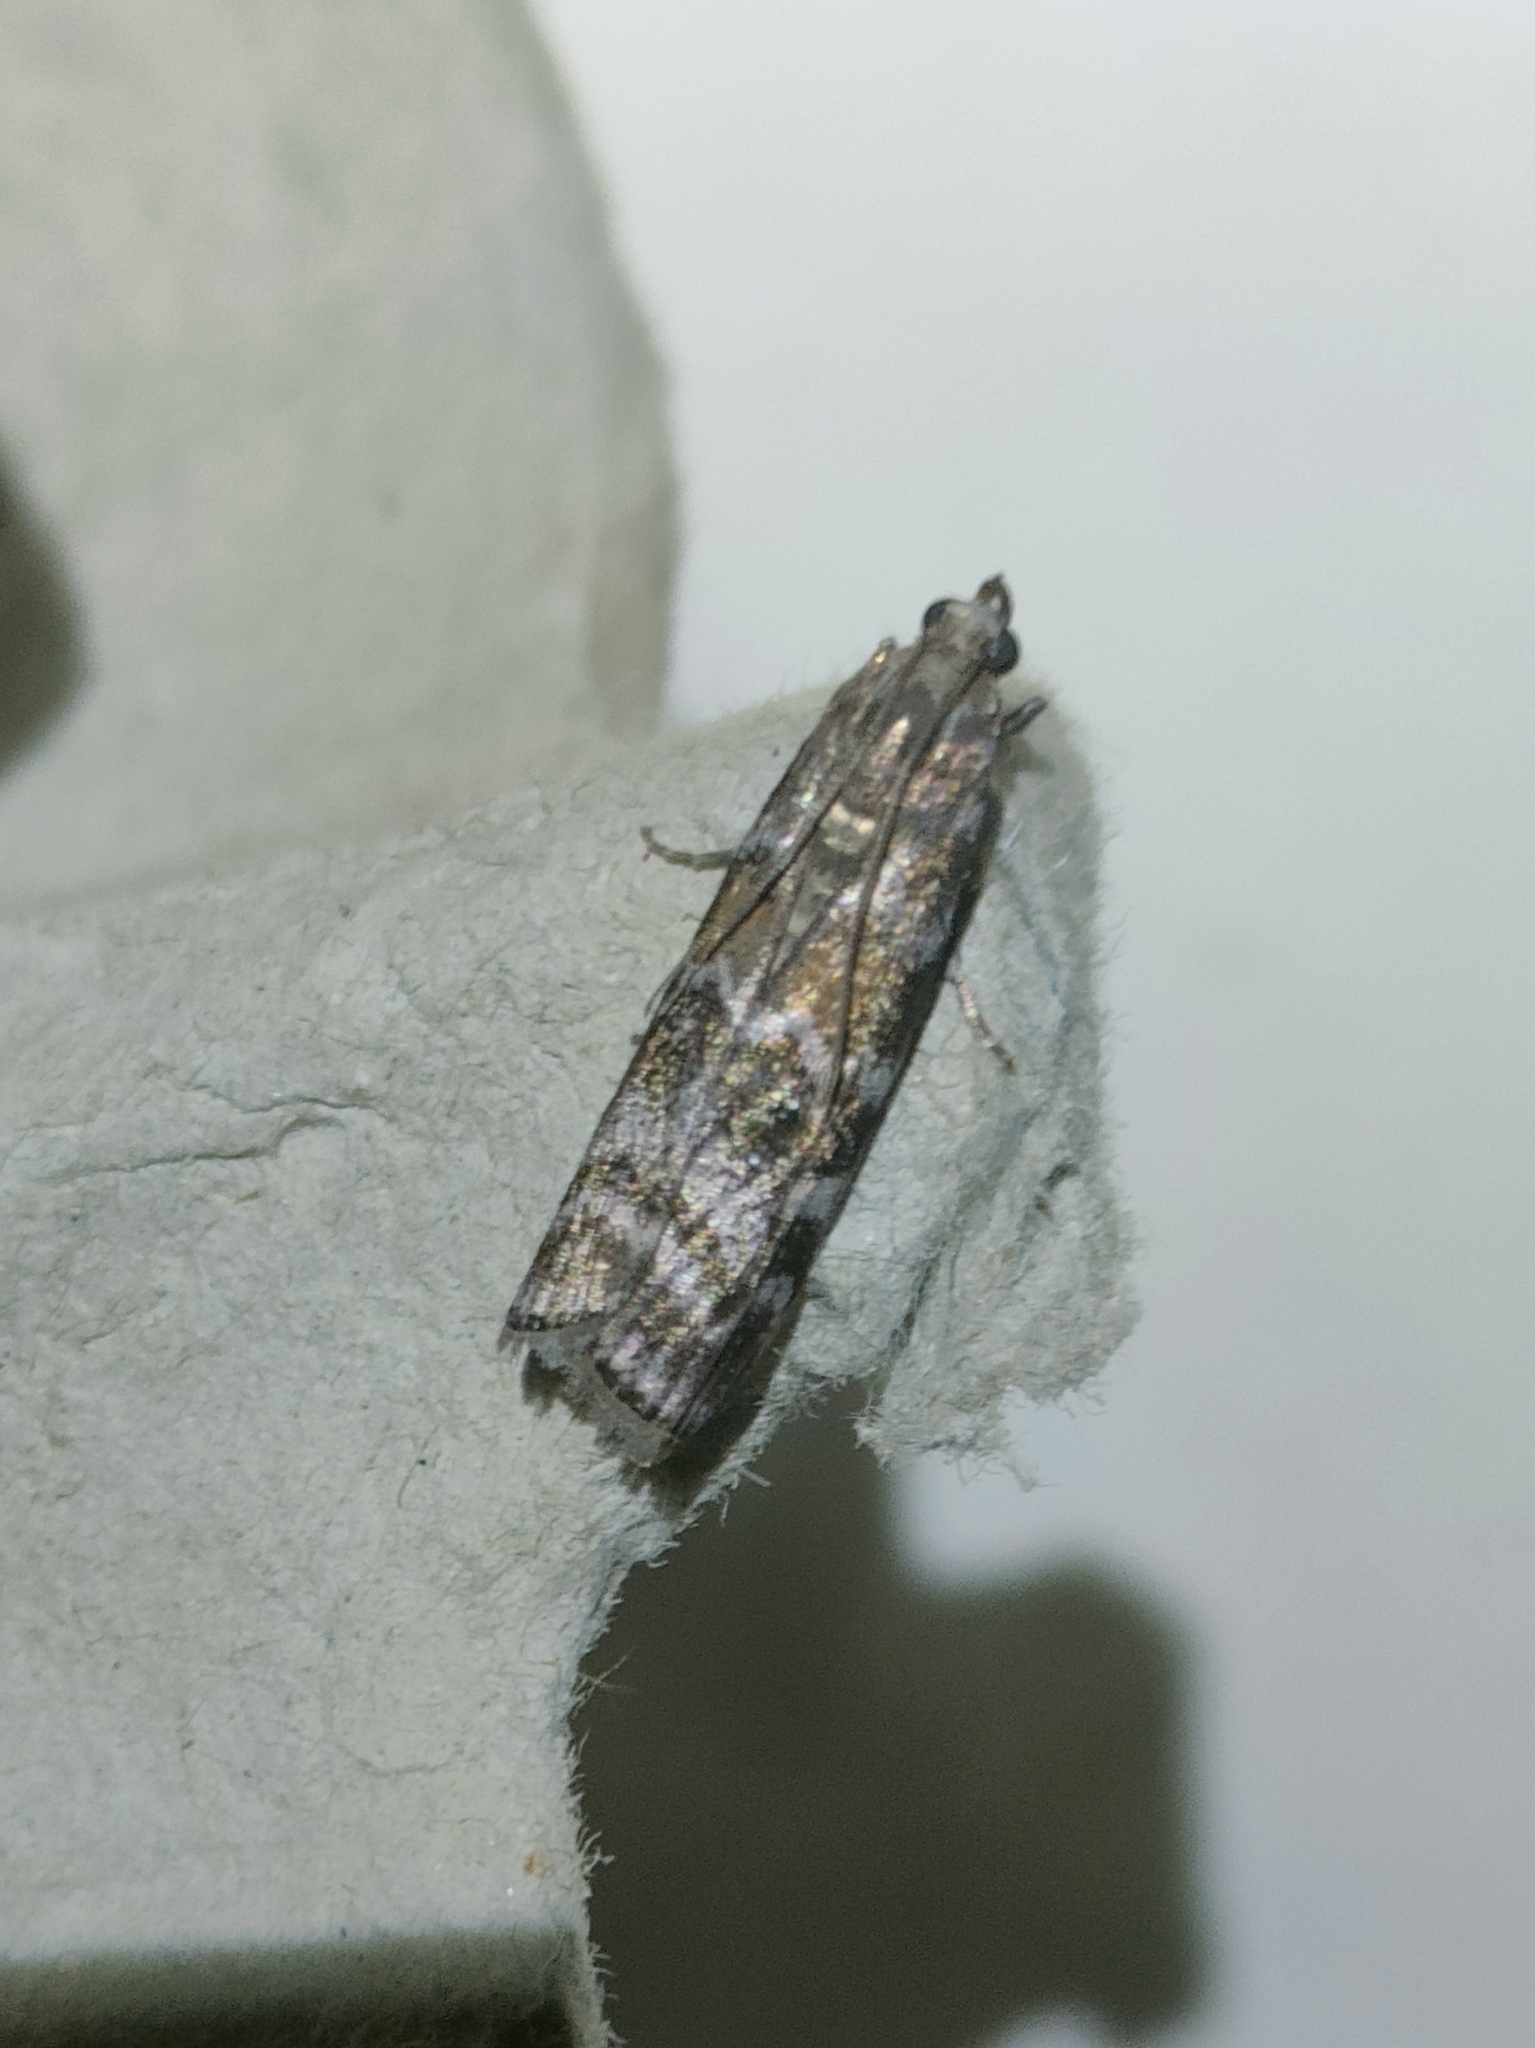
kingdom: Animalia
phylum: Arthropoda
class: Insecta
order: Lepidoptera
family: Pyralidae
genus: Dioryctria
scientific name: Dioryctria abietella
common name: Dark pine knot-horn
